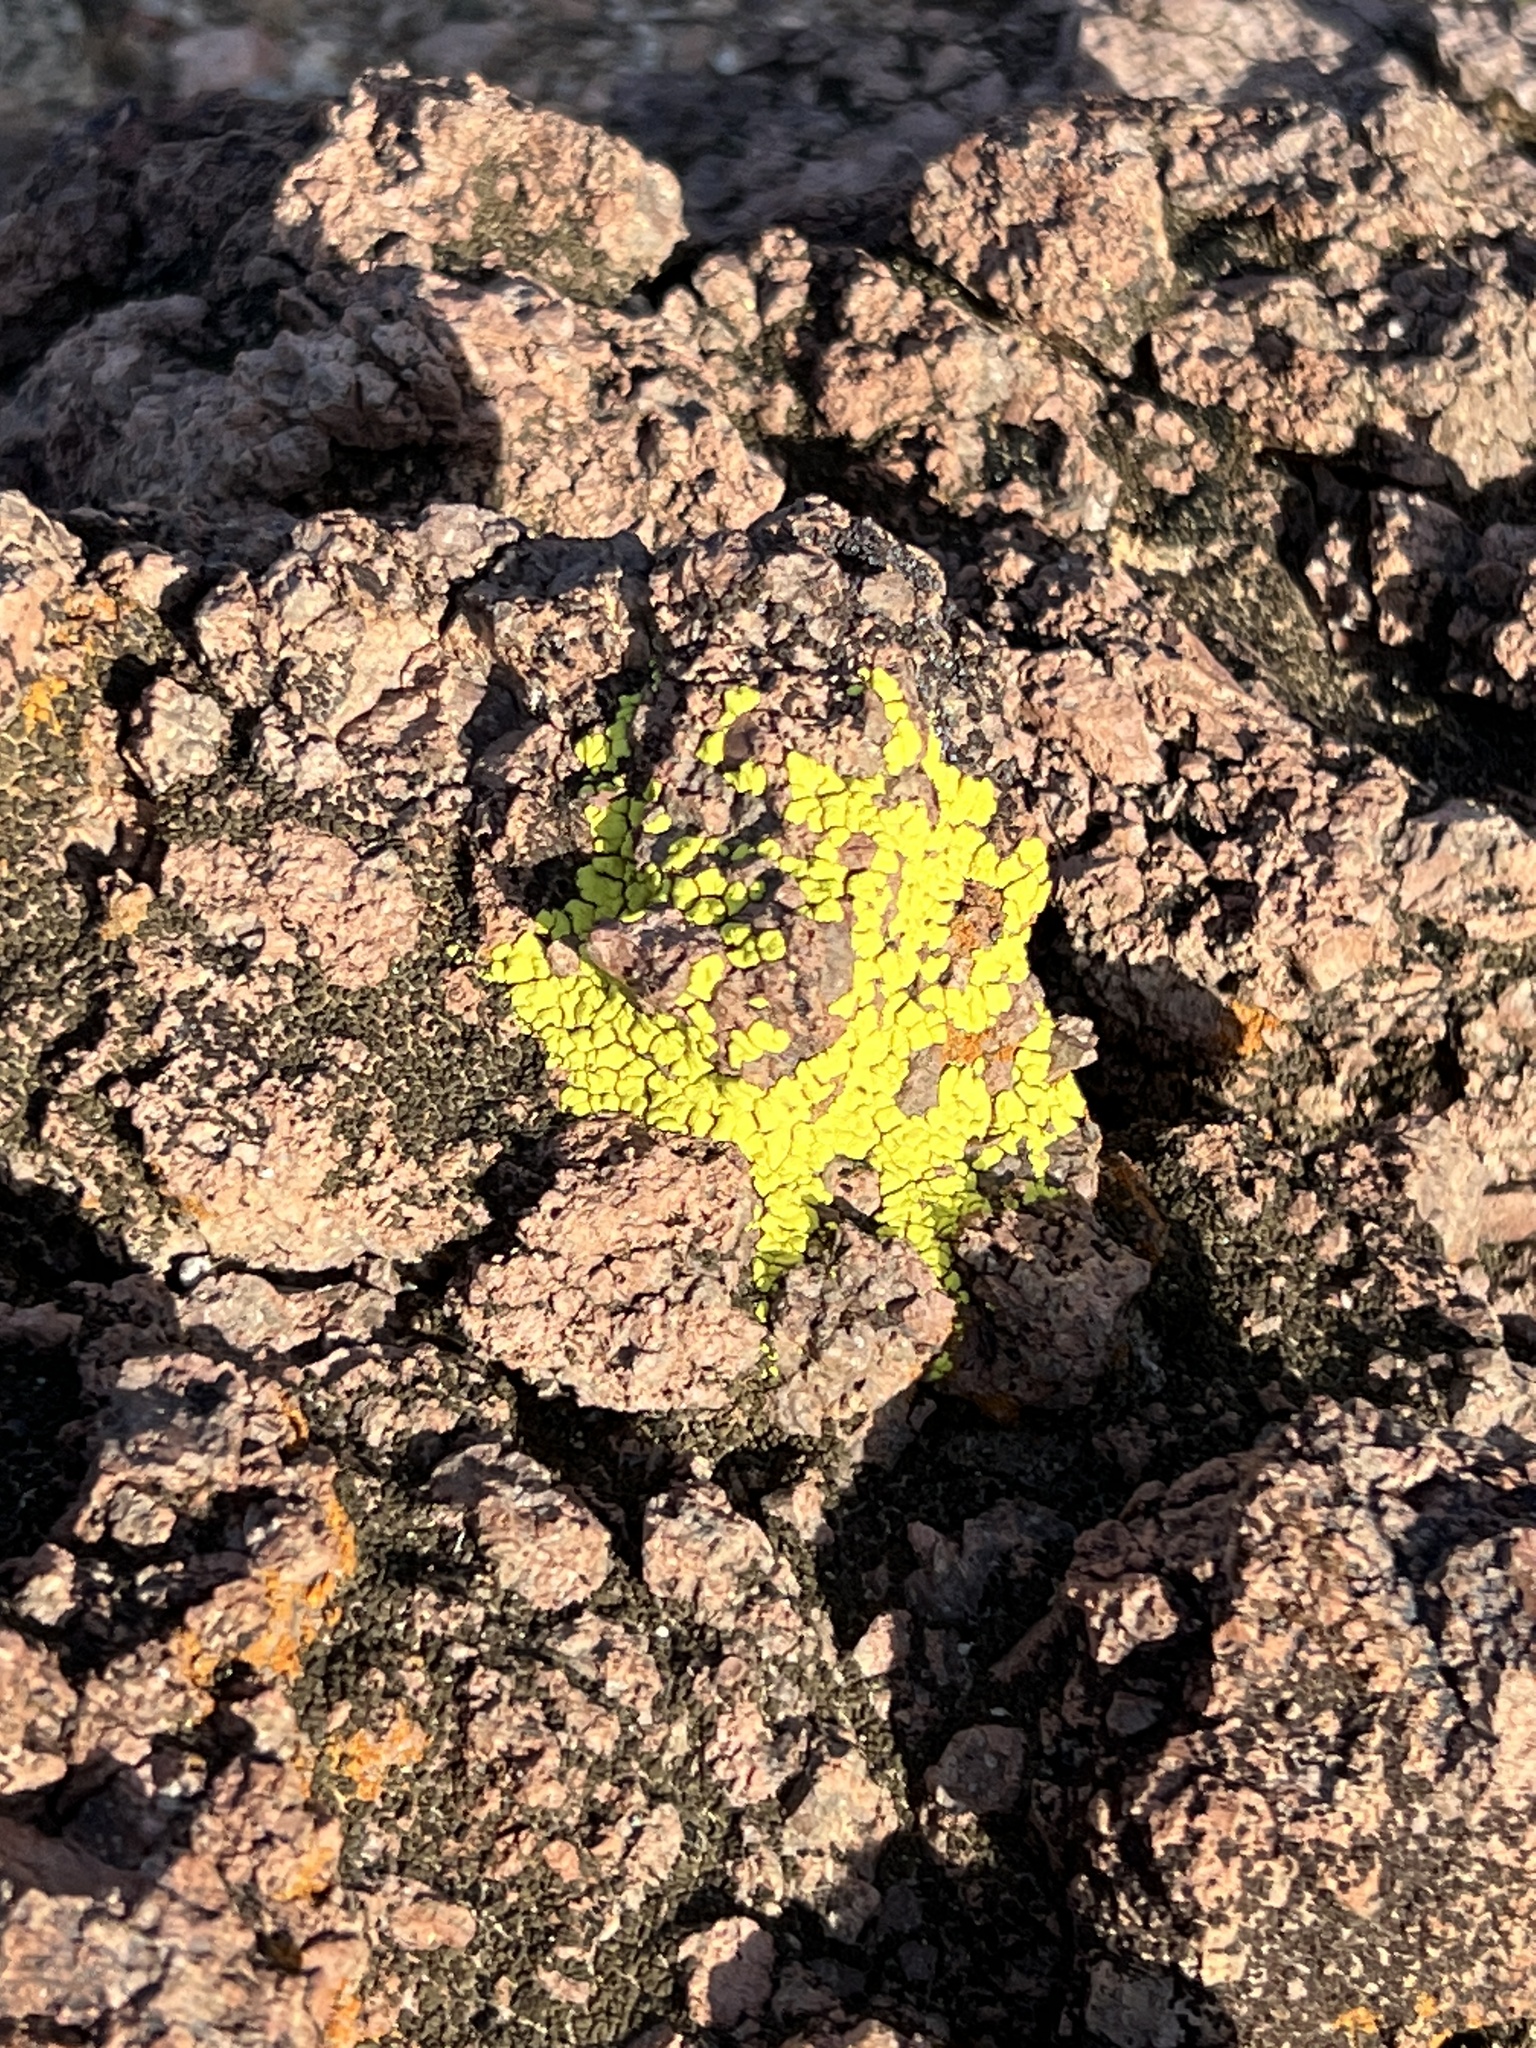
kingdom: Fungi
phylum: Ascomycota
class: Lecanoromycetes
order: Acarosporales
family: Acarosporaceae
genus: Acarospora
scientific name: Acarospora socialis
